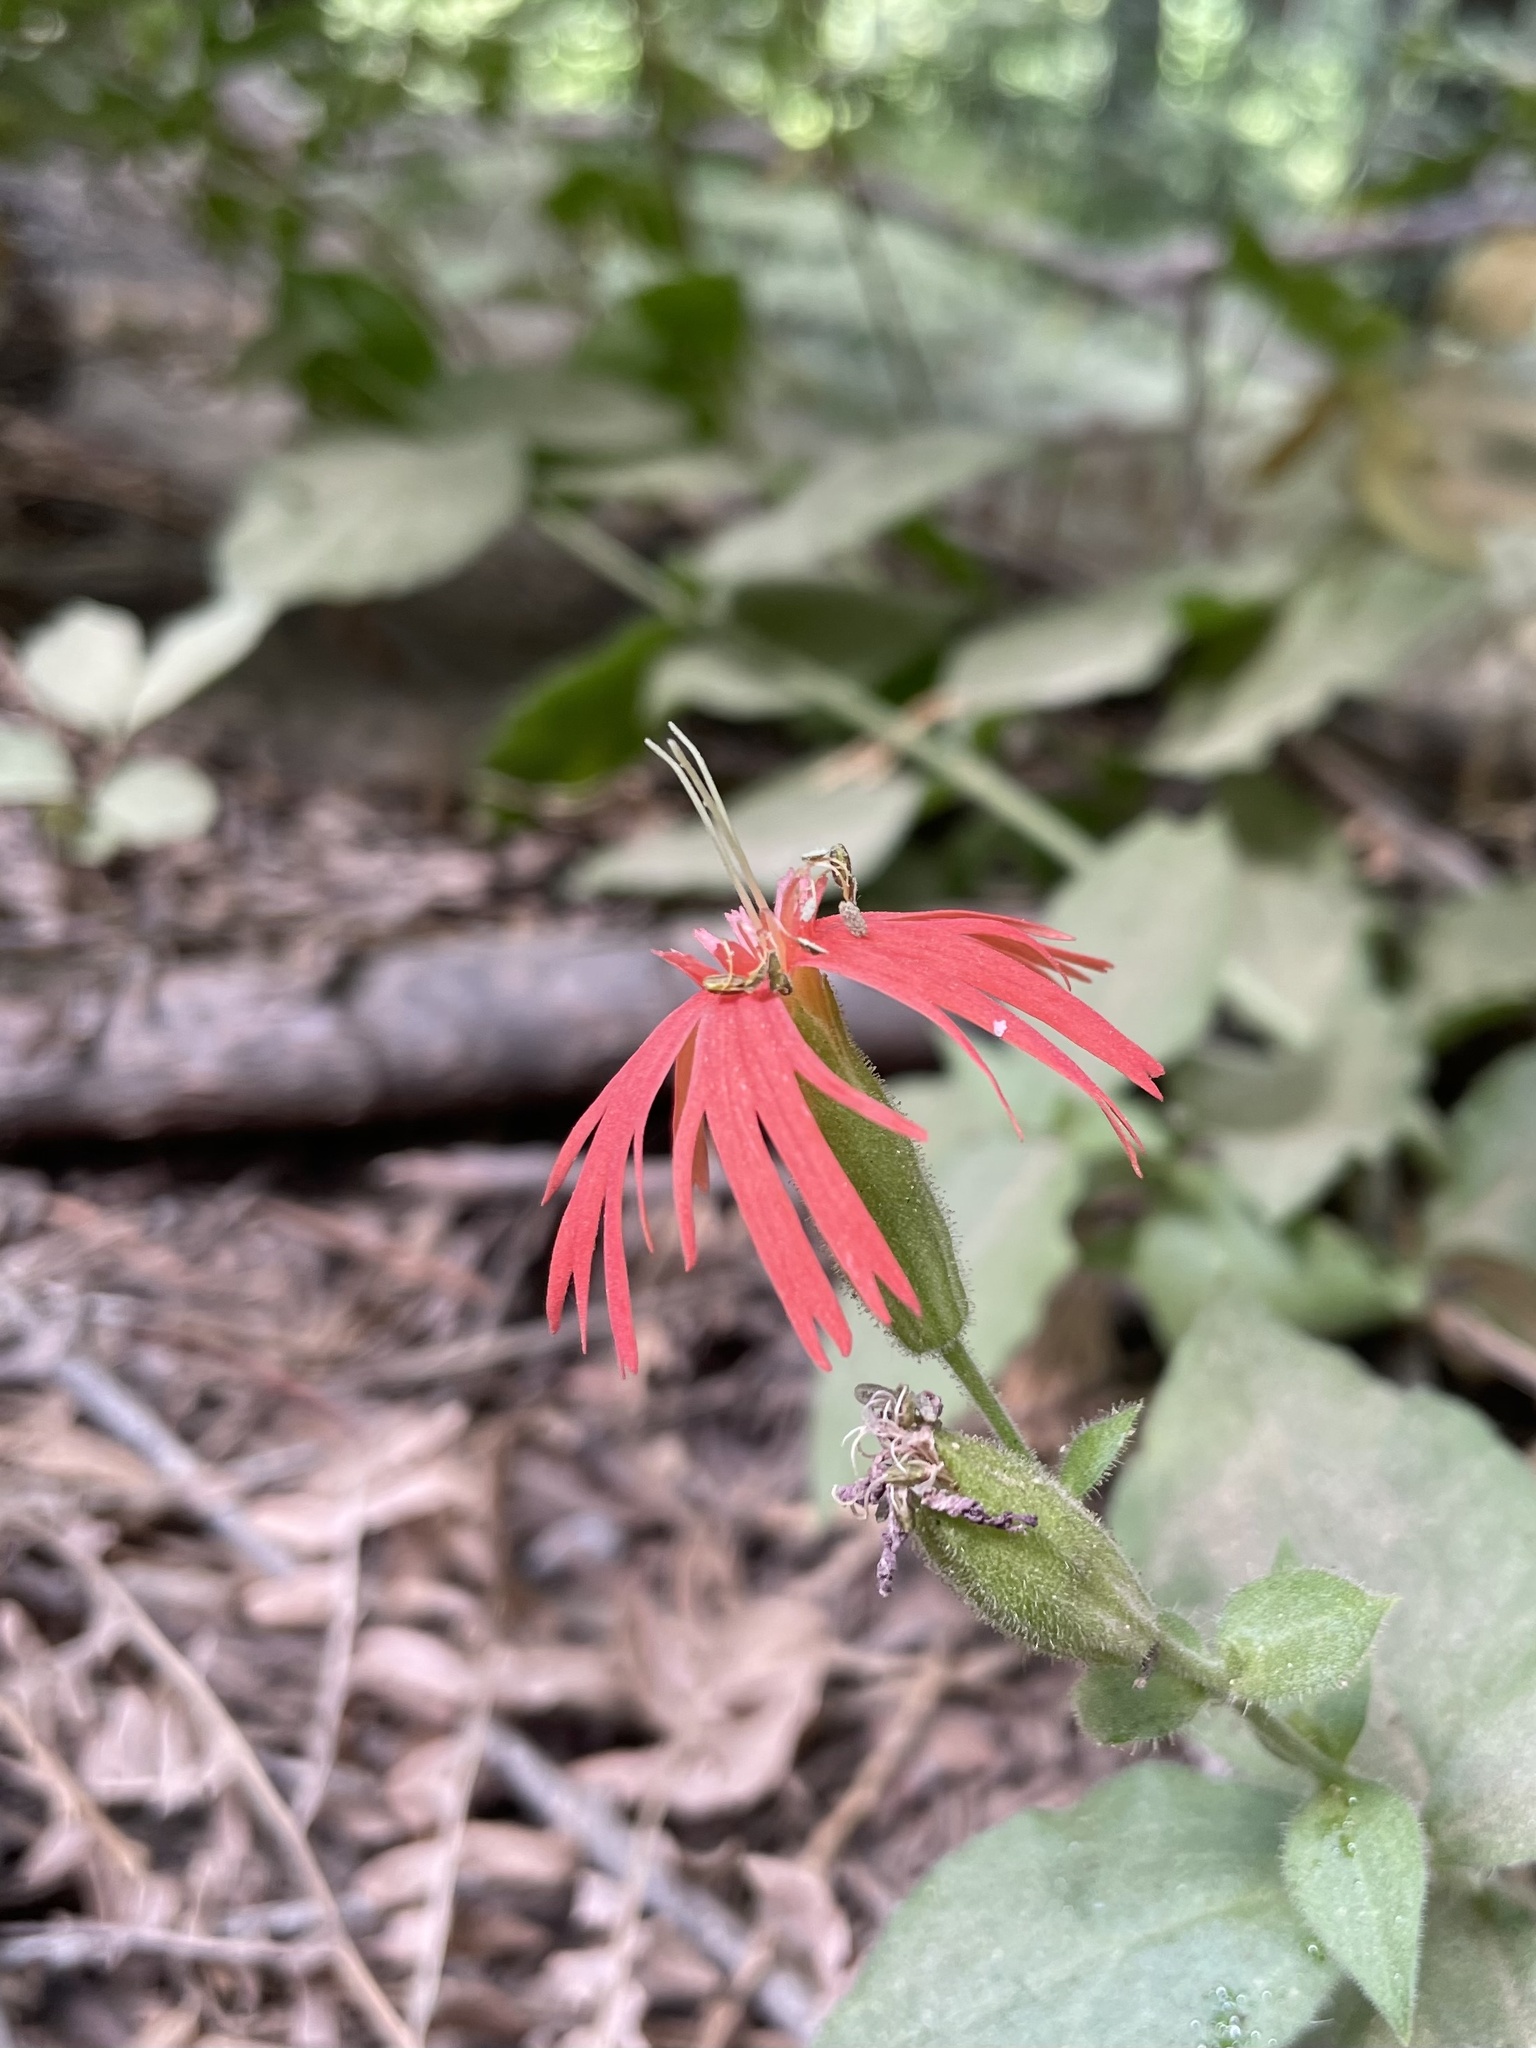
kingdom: Plantae
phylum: Tracheophyta
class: Magnoliopsida
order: Caryophyllales
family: Caryophyllaceae
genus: Silene
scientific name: Silene laciniata
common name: Indian-pink
